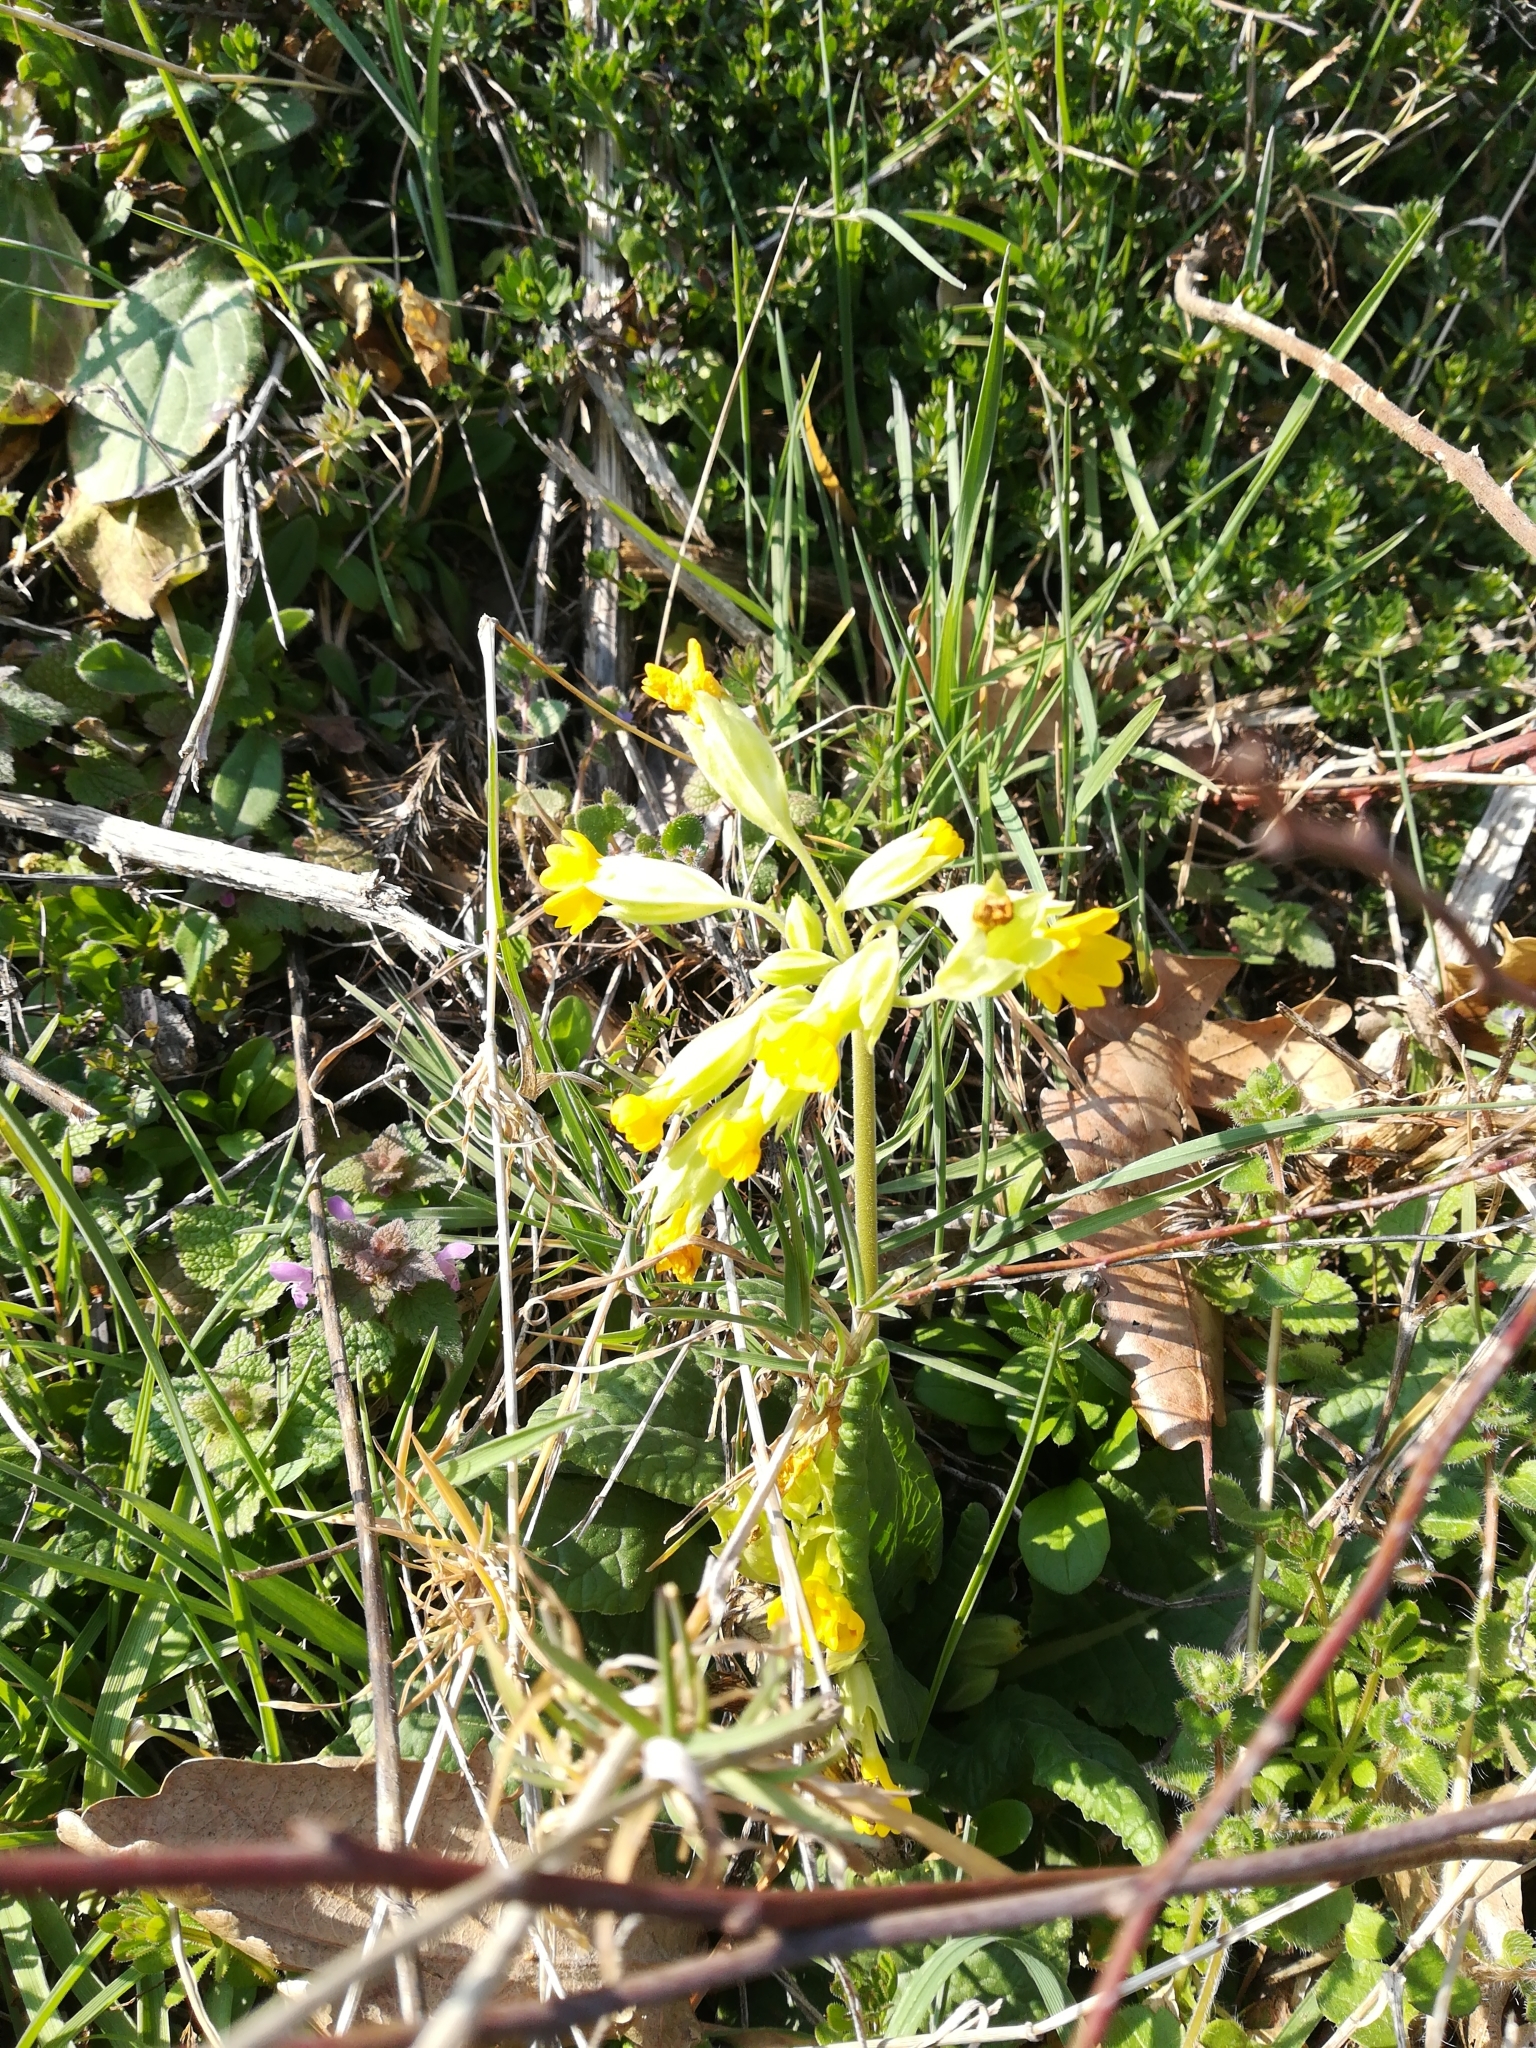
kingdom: Plantae
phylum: Tracheophyta
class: Magnoliopsida
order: Ericales
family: Primulaceae
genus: Primula
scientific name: Primula veris
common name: Cowslip
